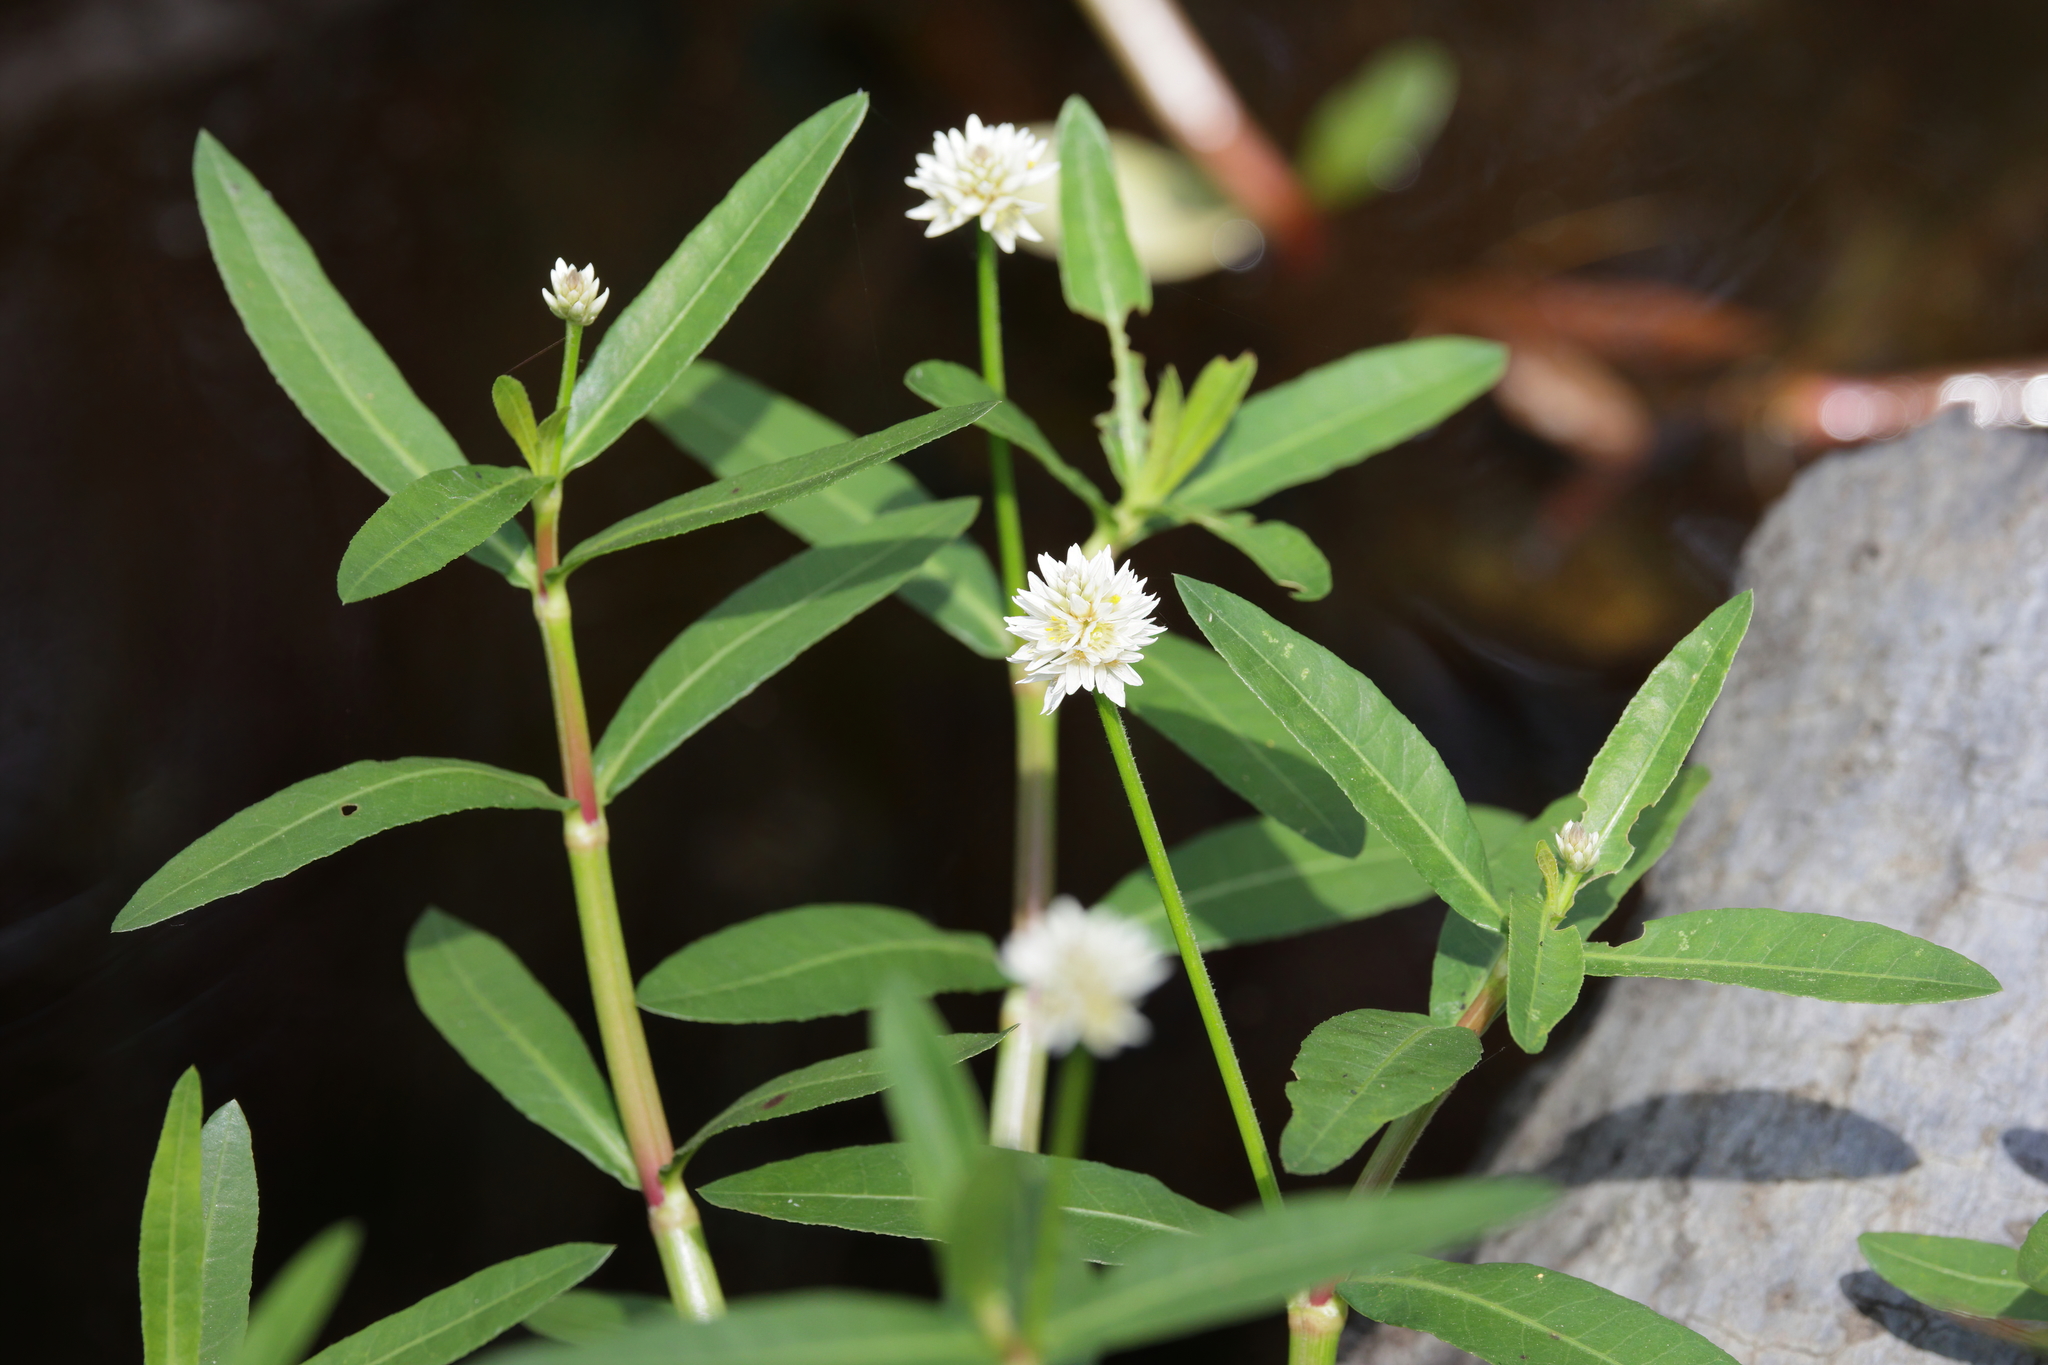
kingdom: Plantae
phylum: Tracheophyta
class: Magnoliopsida
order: Caryophyllales
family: Amaranthaceae
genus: Alternanthera
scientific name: Alternanthera philoxeroides
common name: Alligatorweed
